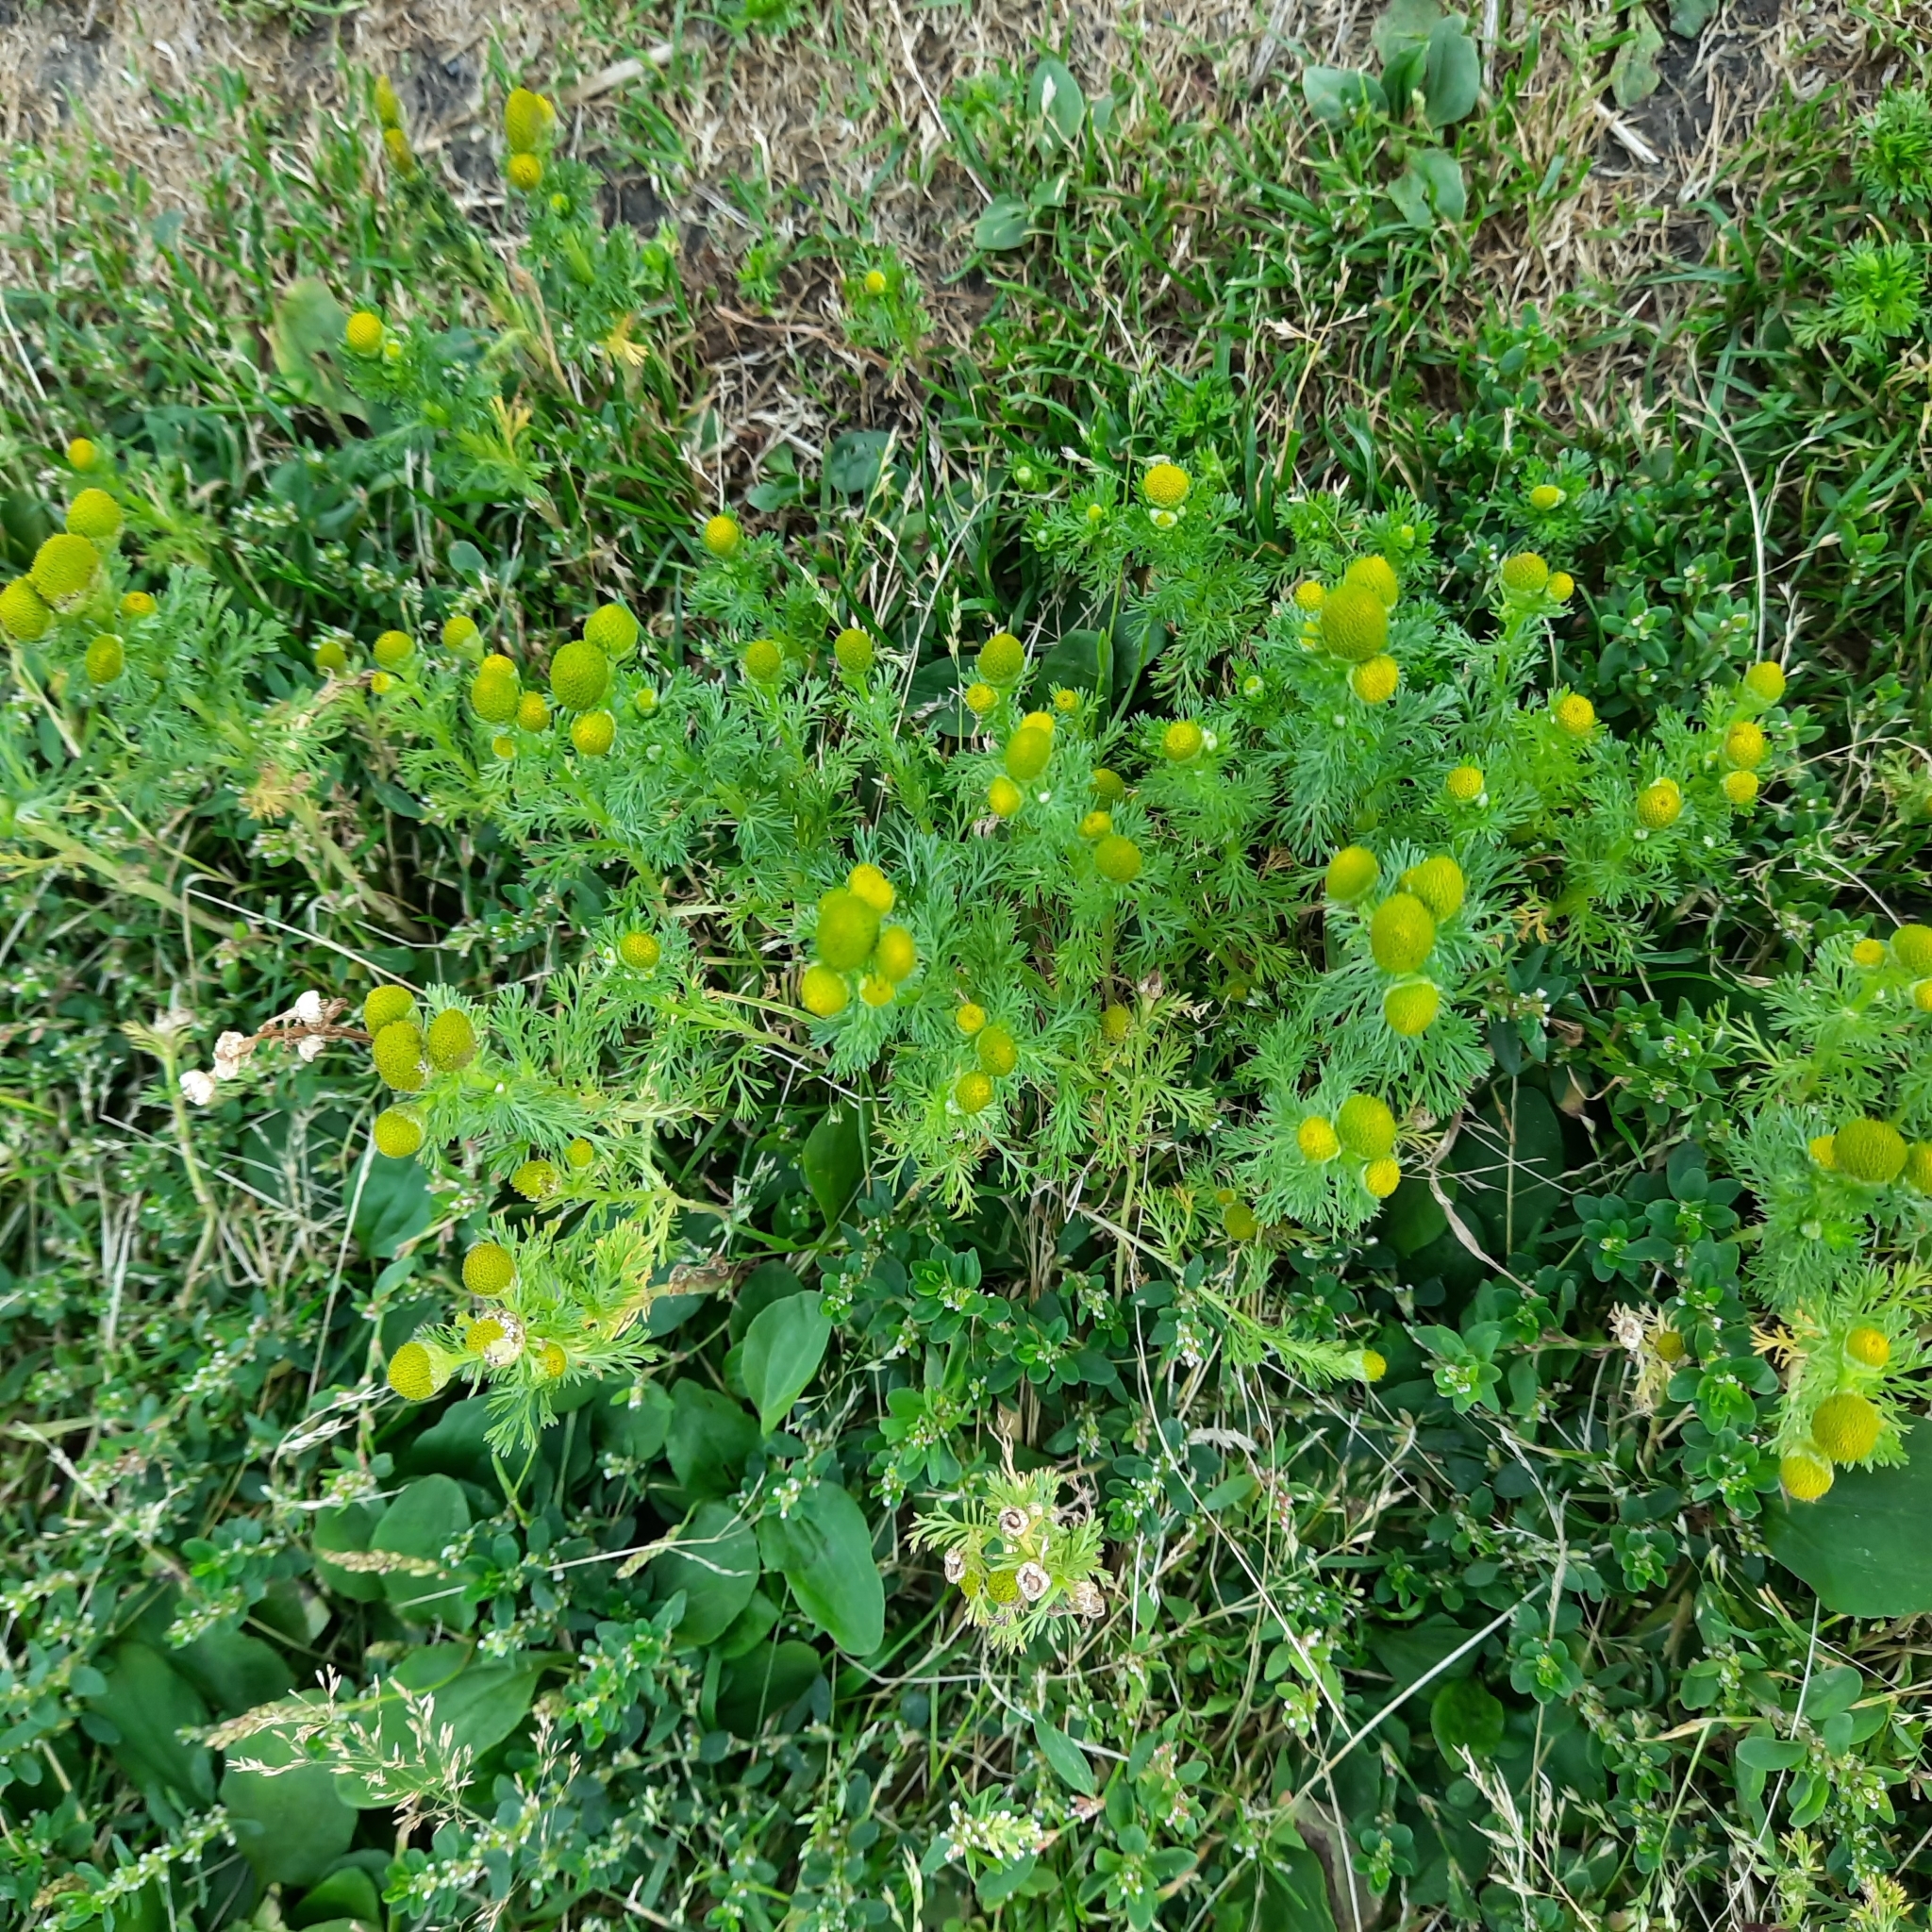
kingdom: Plantae
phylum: Tracheophyta
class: Magnoliopsida
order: Asterales
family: Asteraceae
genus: Matricaria
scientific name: Matricaria discoidea
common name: Disc mayweed
